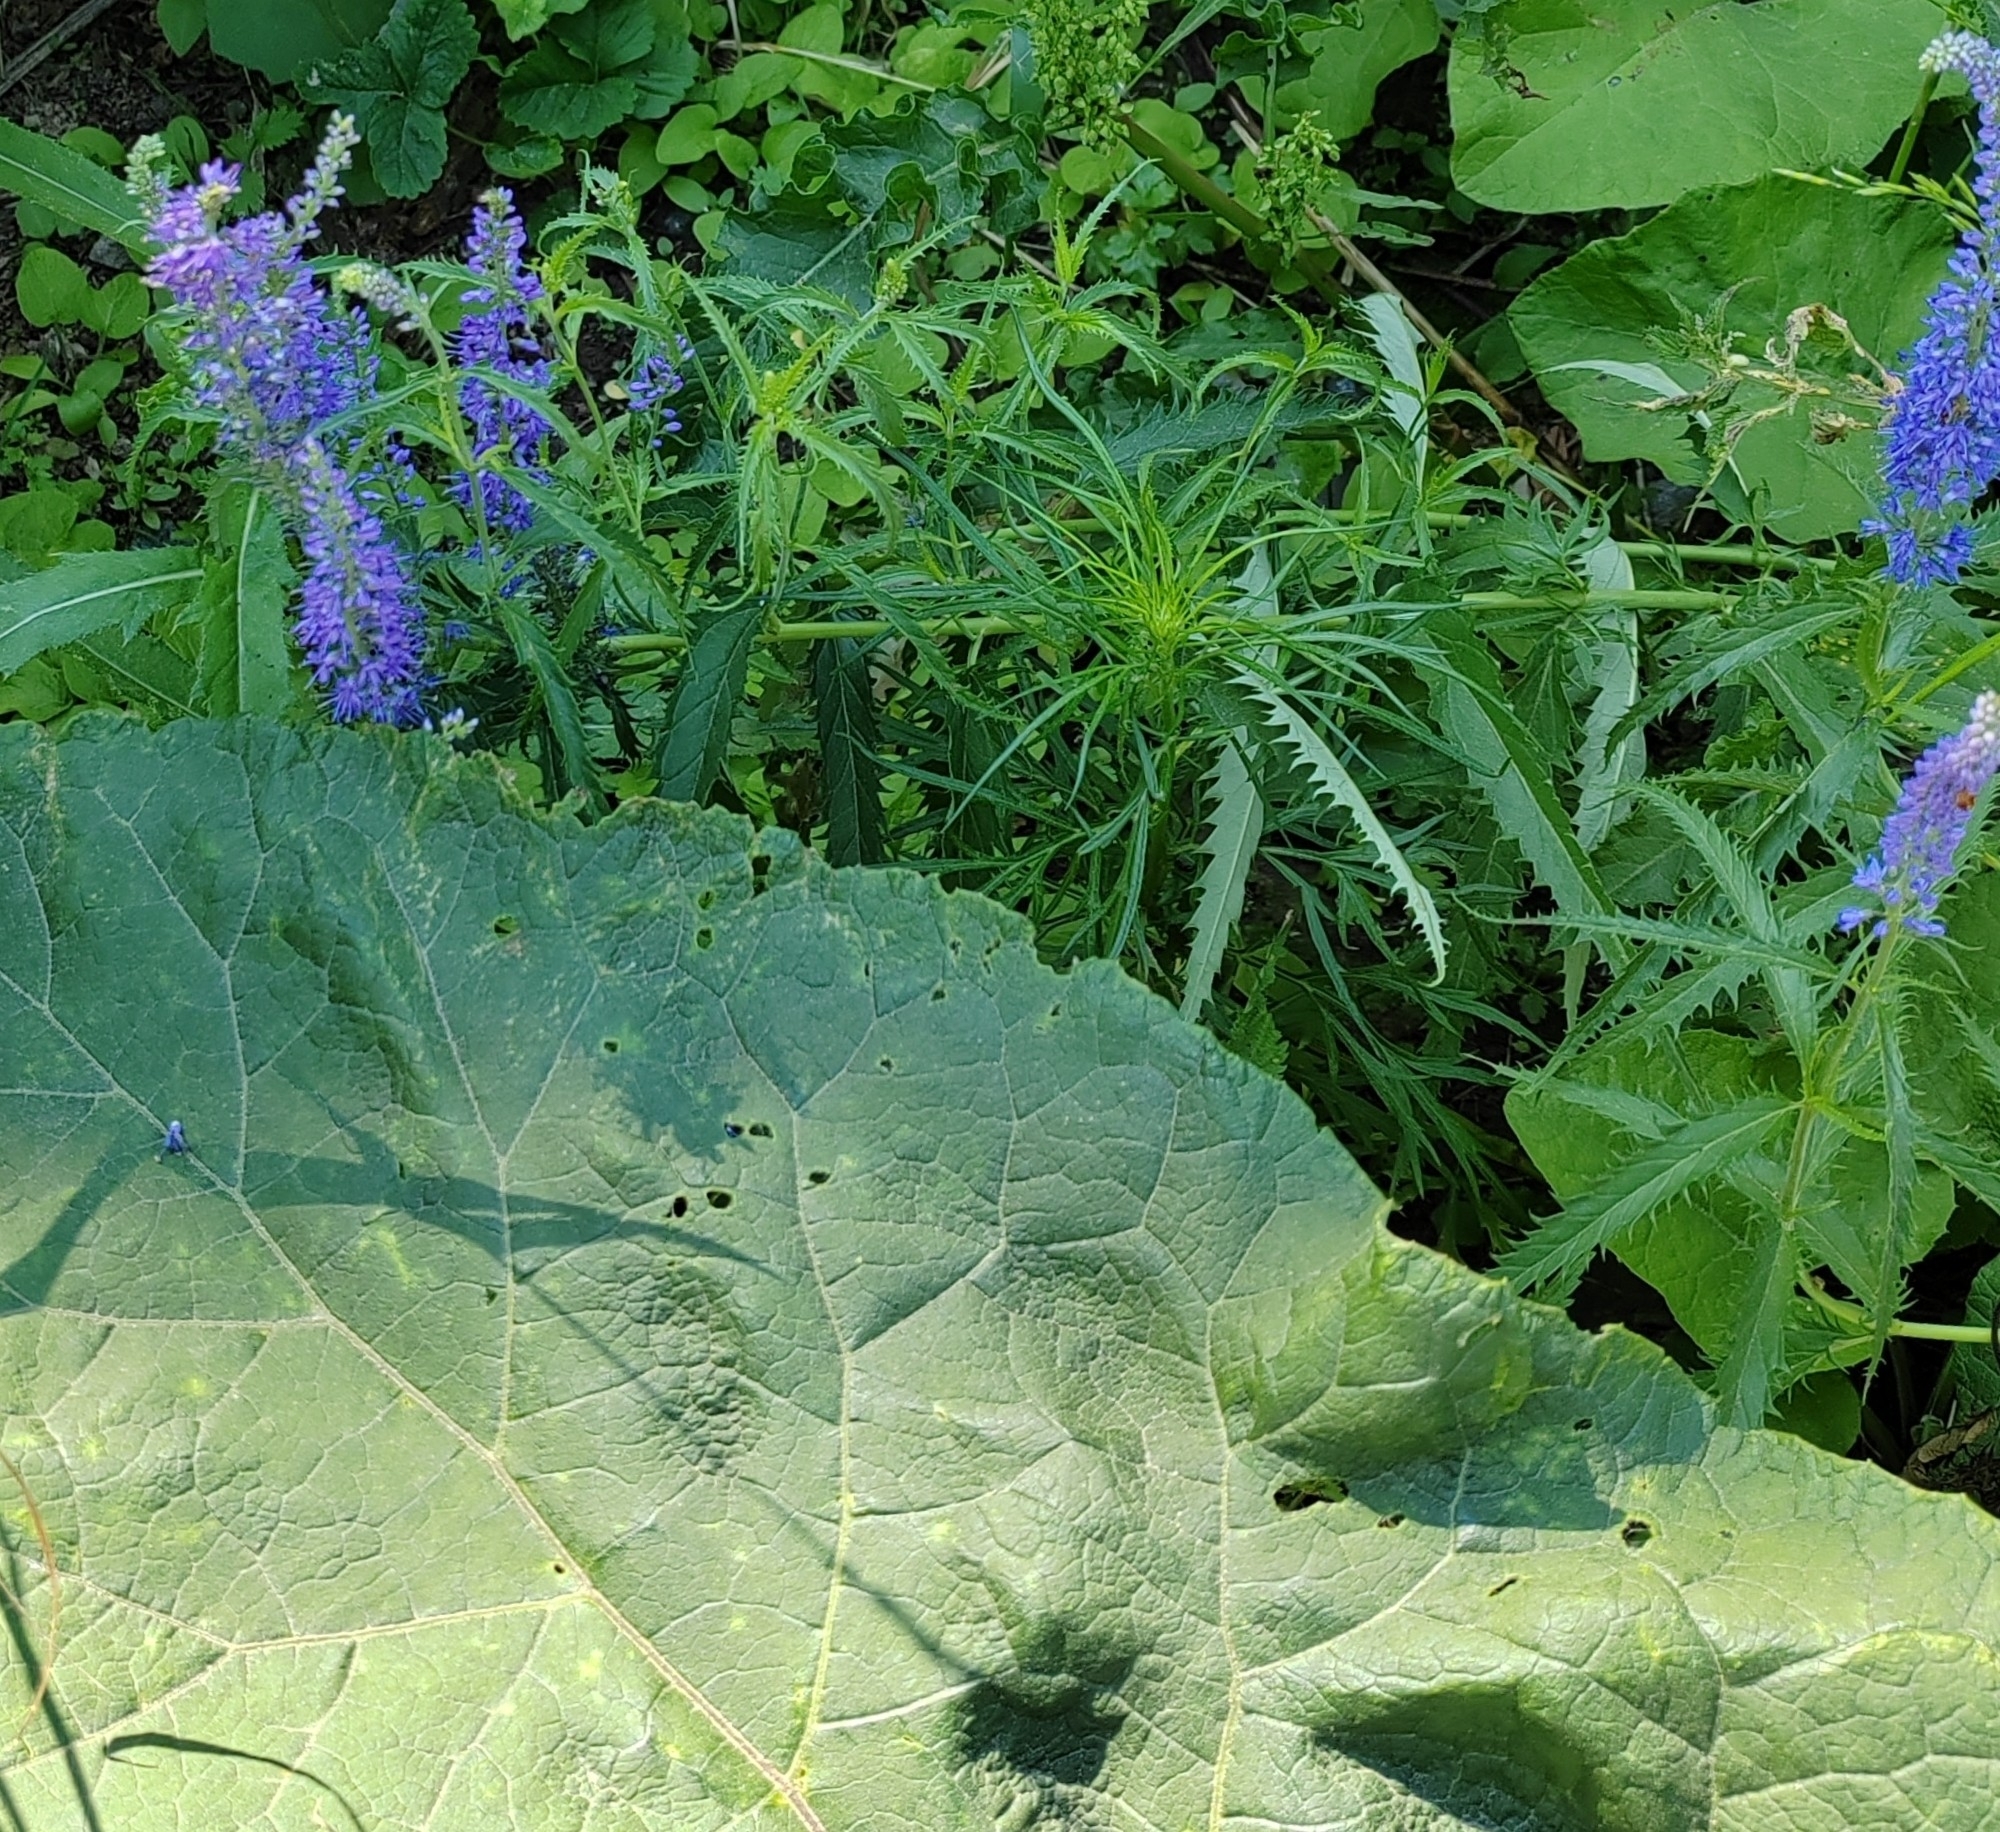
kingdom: Plantae
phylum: Tracheophyta
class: Magnoliopsida
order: Lamiales
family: Plantaginaceae
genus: Veronica
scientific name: Veronica longifolia
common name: Garden speedwell
